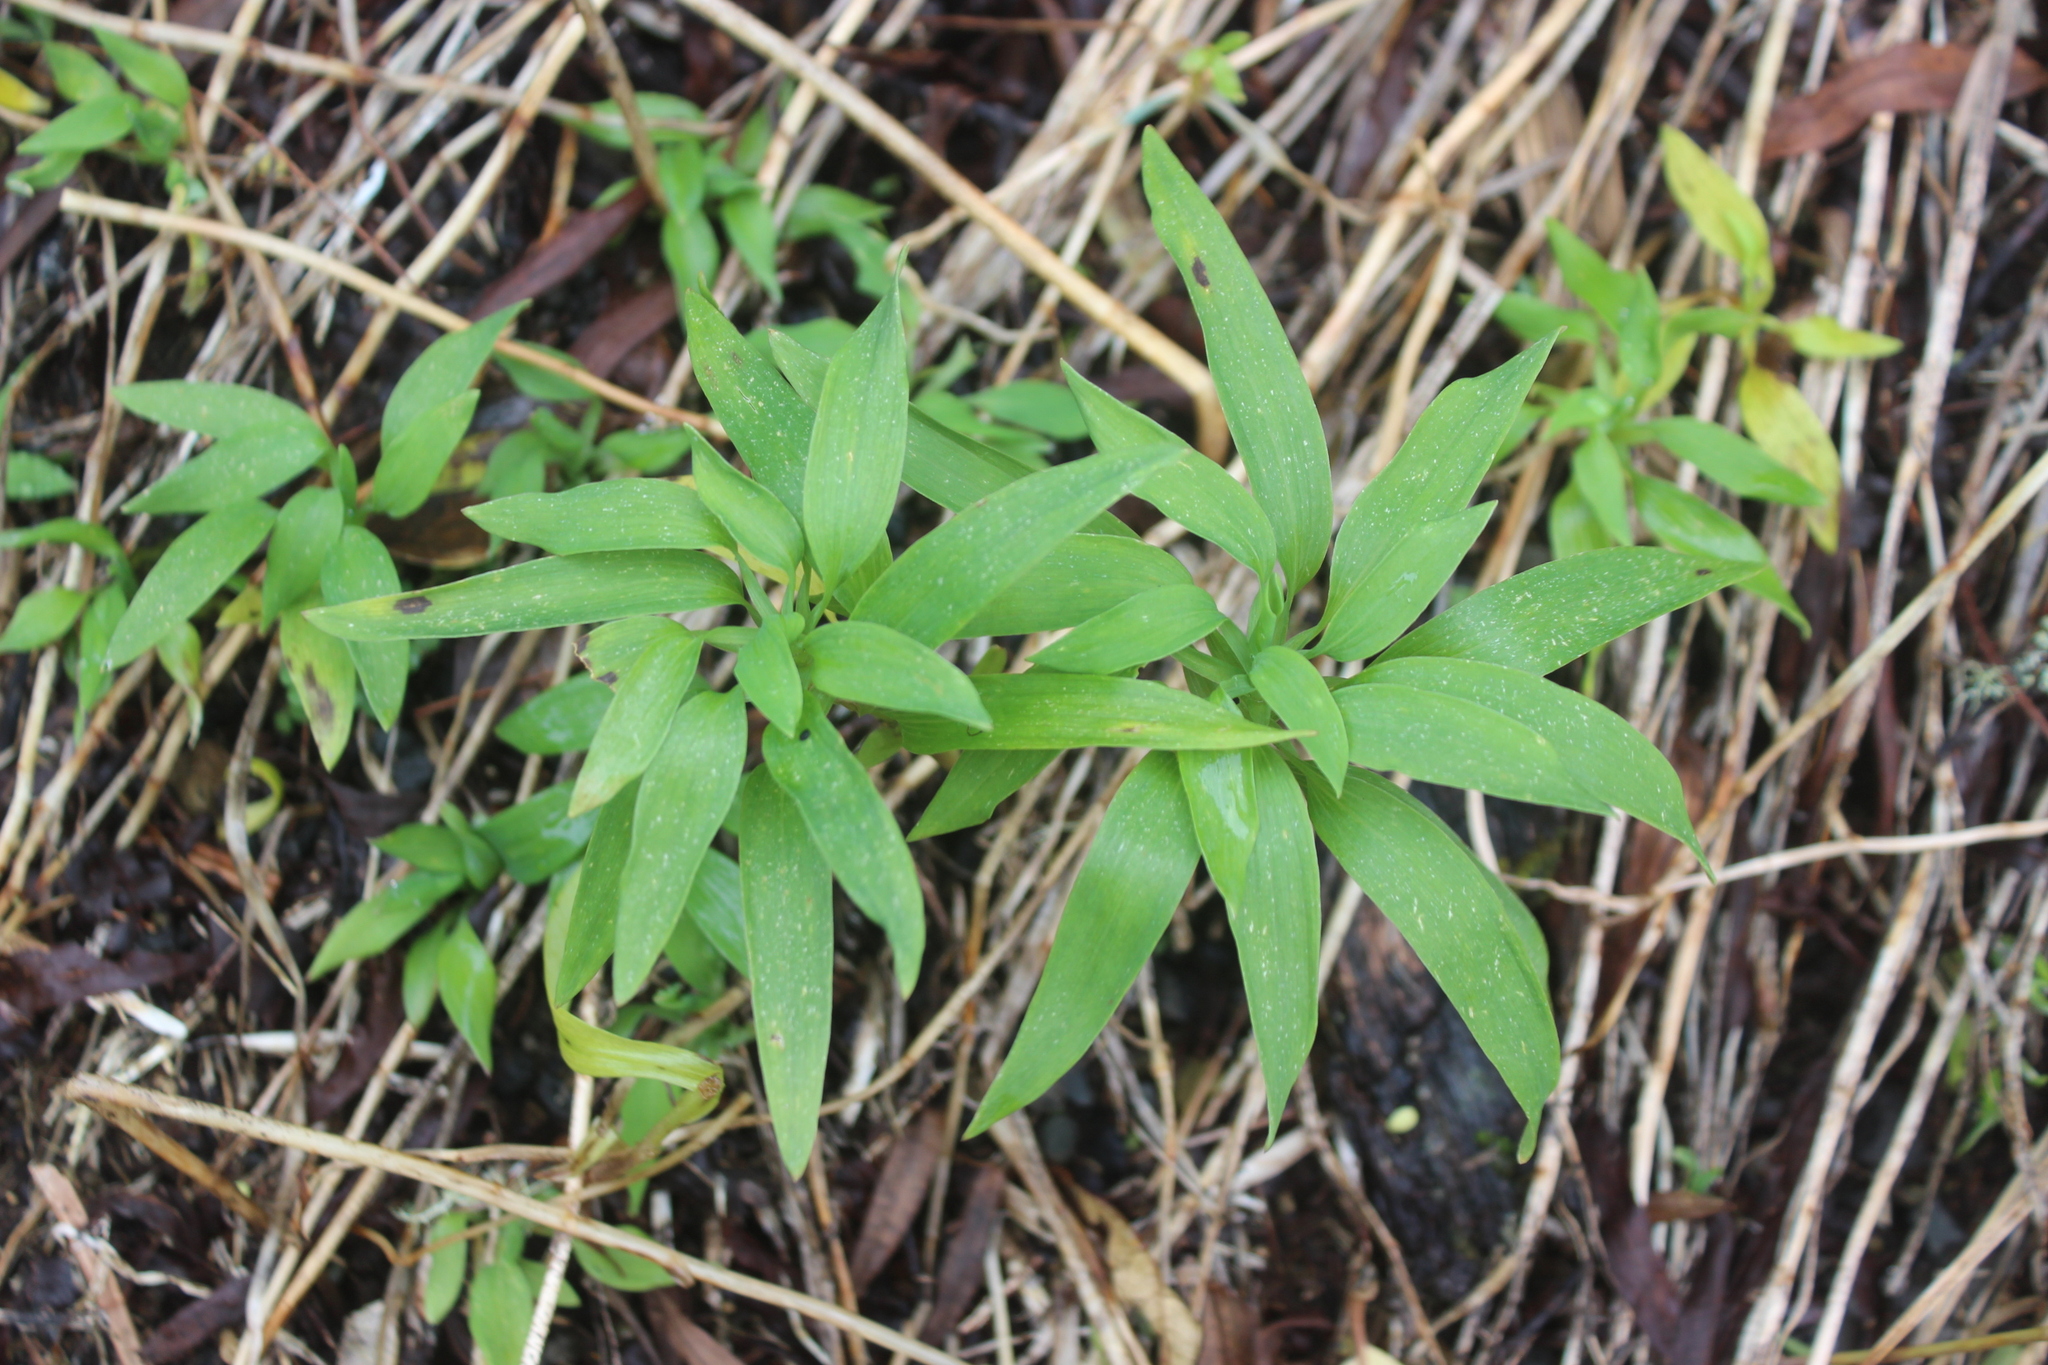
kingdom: Plantae
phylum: Tracheophyta
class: Liliopsida
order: Liliales
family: Alstroemeriaceae
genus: Alstroemeria
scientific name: Alstroemeria aurea
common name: Peruvian lily
